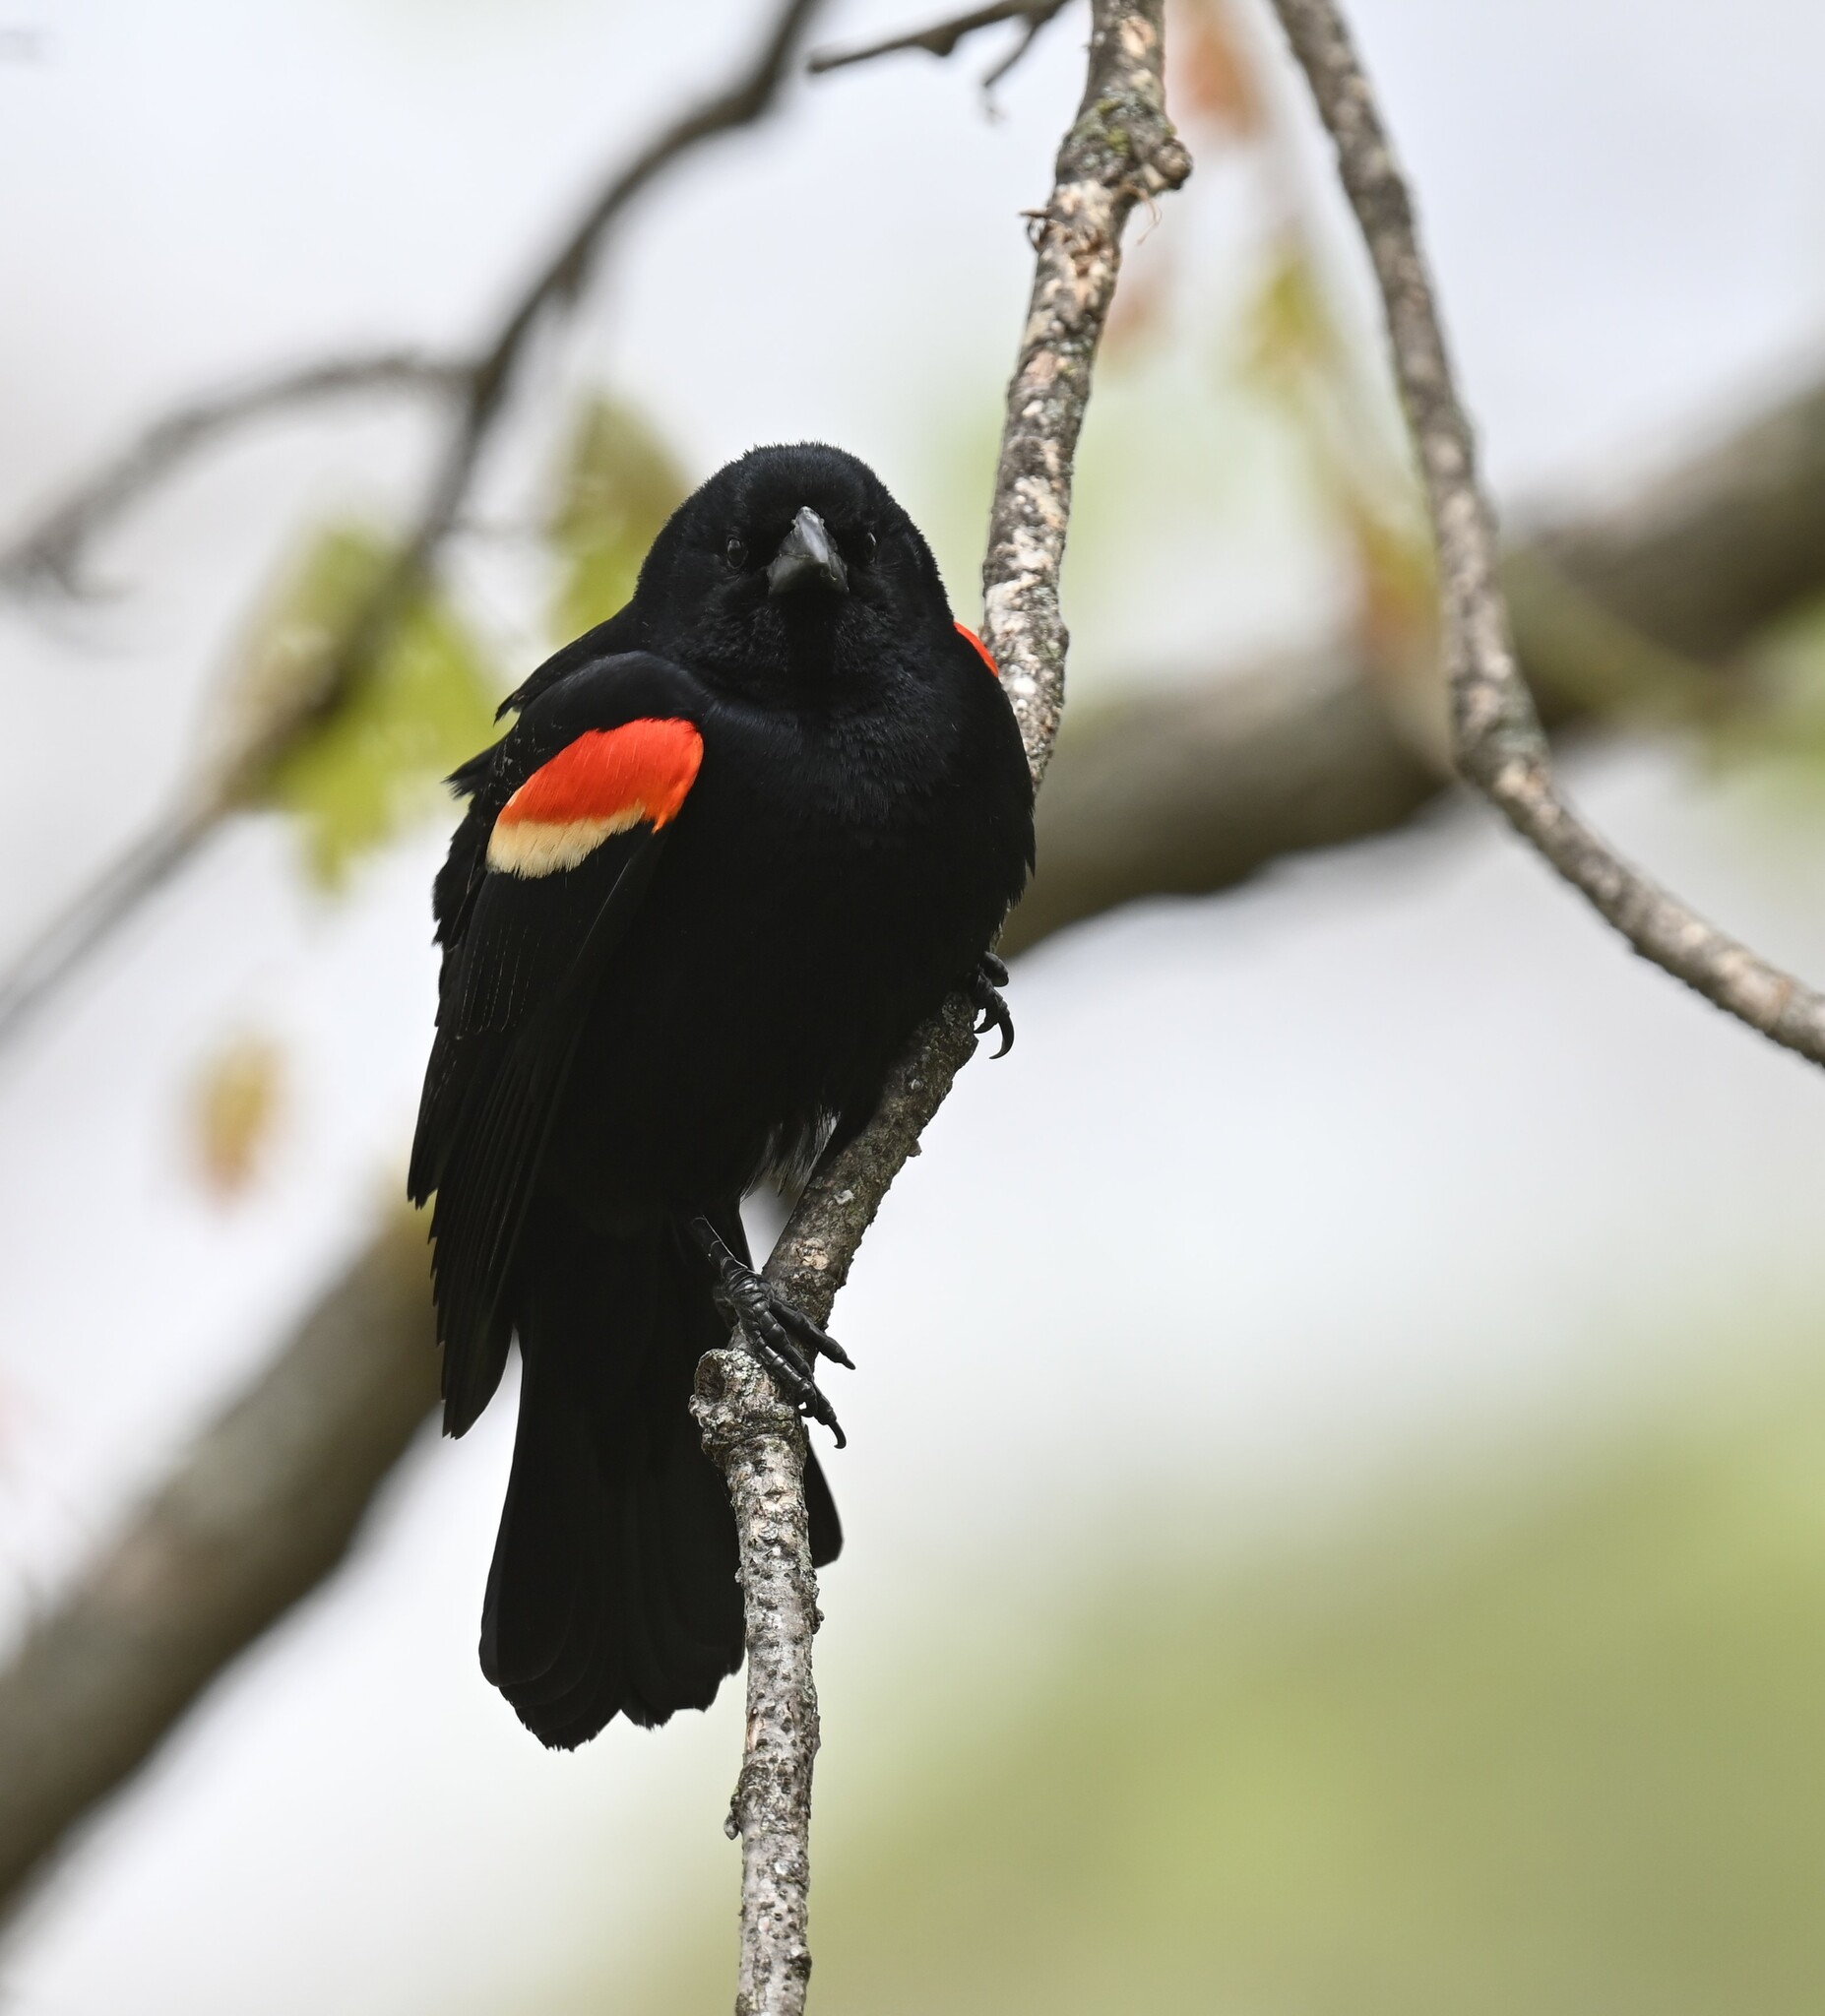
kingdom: Animalia
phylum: Chordata
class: Aves
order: Passeriformes
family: Icteridae
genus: Agelaius
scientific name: Agelaius phoeniceus
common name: Red-winged blackbird
